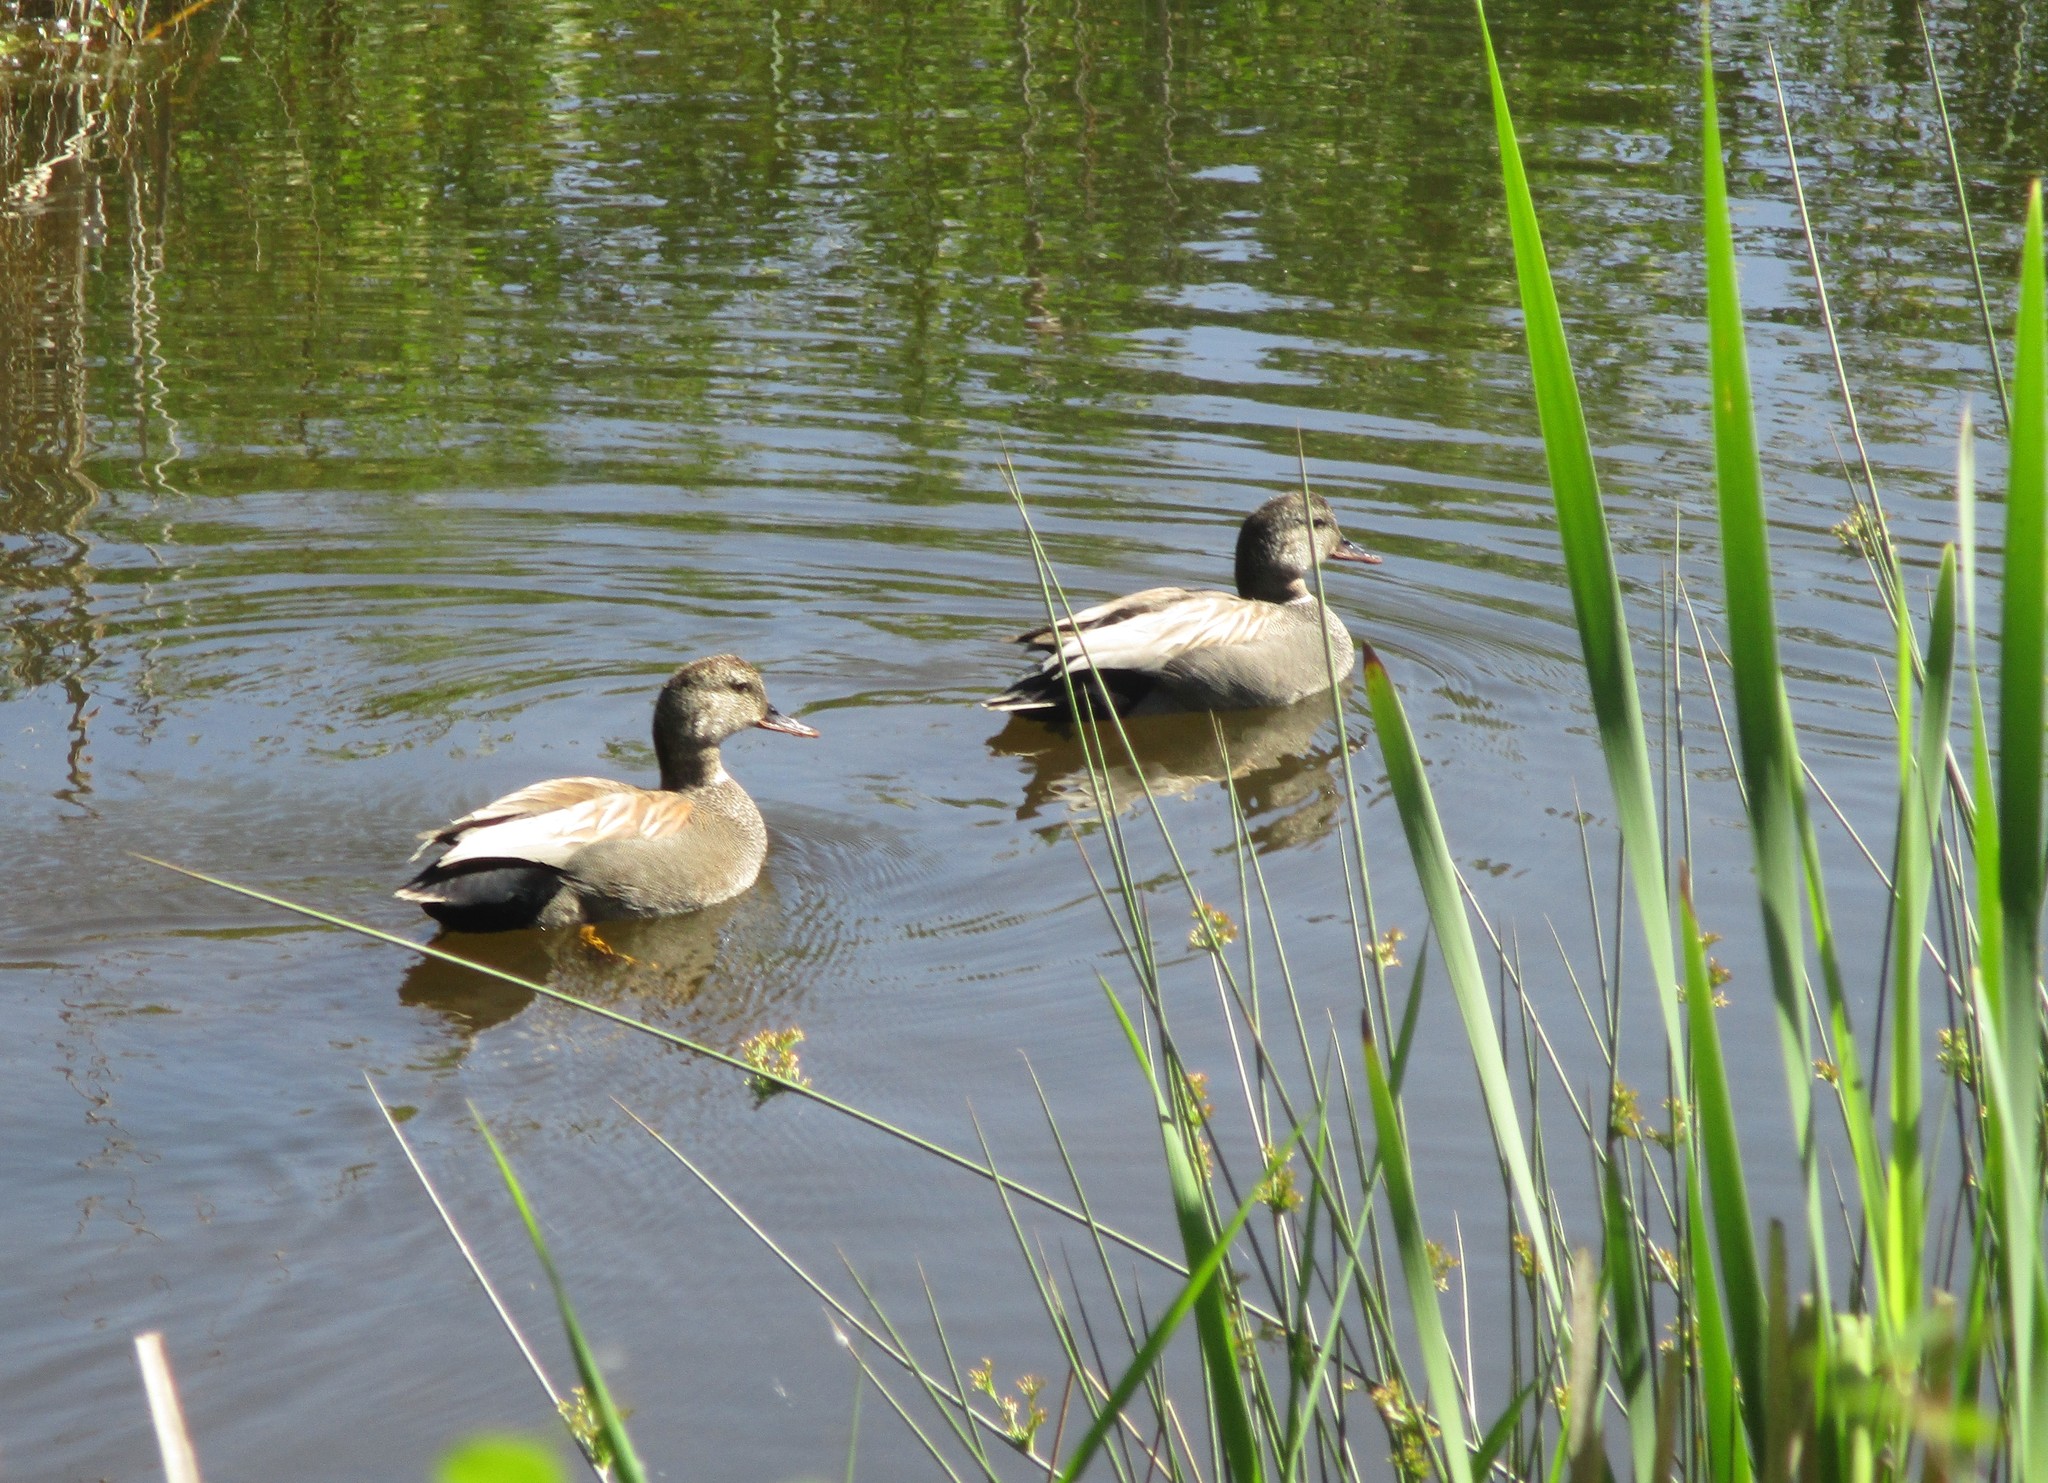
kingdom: Animalia
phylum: Chordata
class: Aves
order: Anseriformes
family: Anatidae
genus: Mareca
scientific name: Mareca strepera
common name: Gadwall
